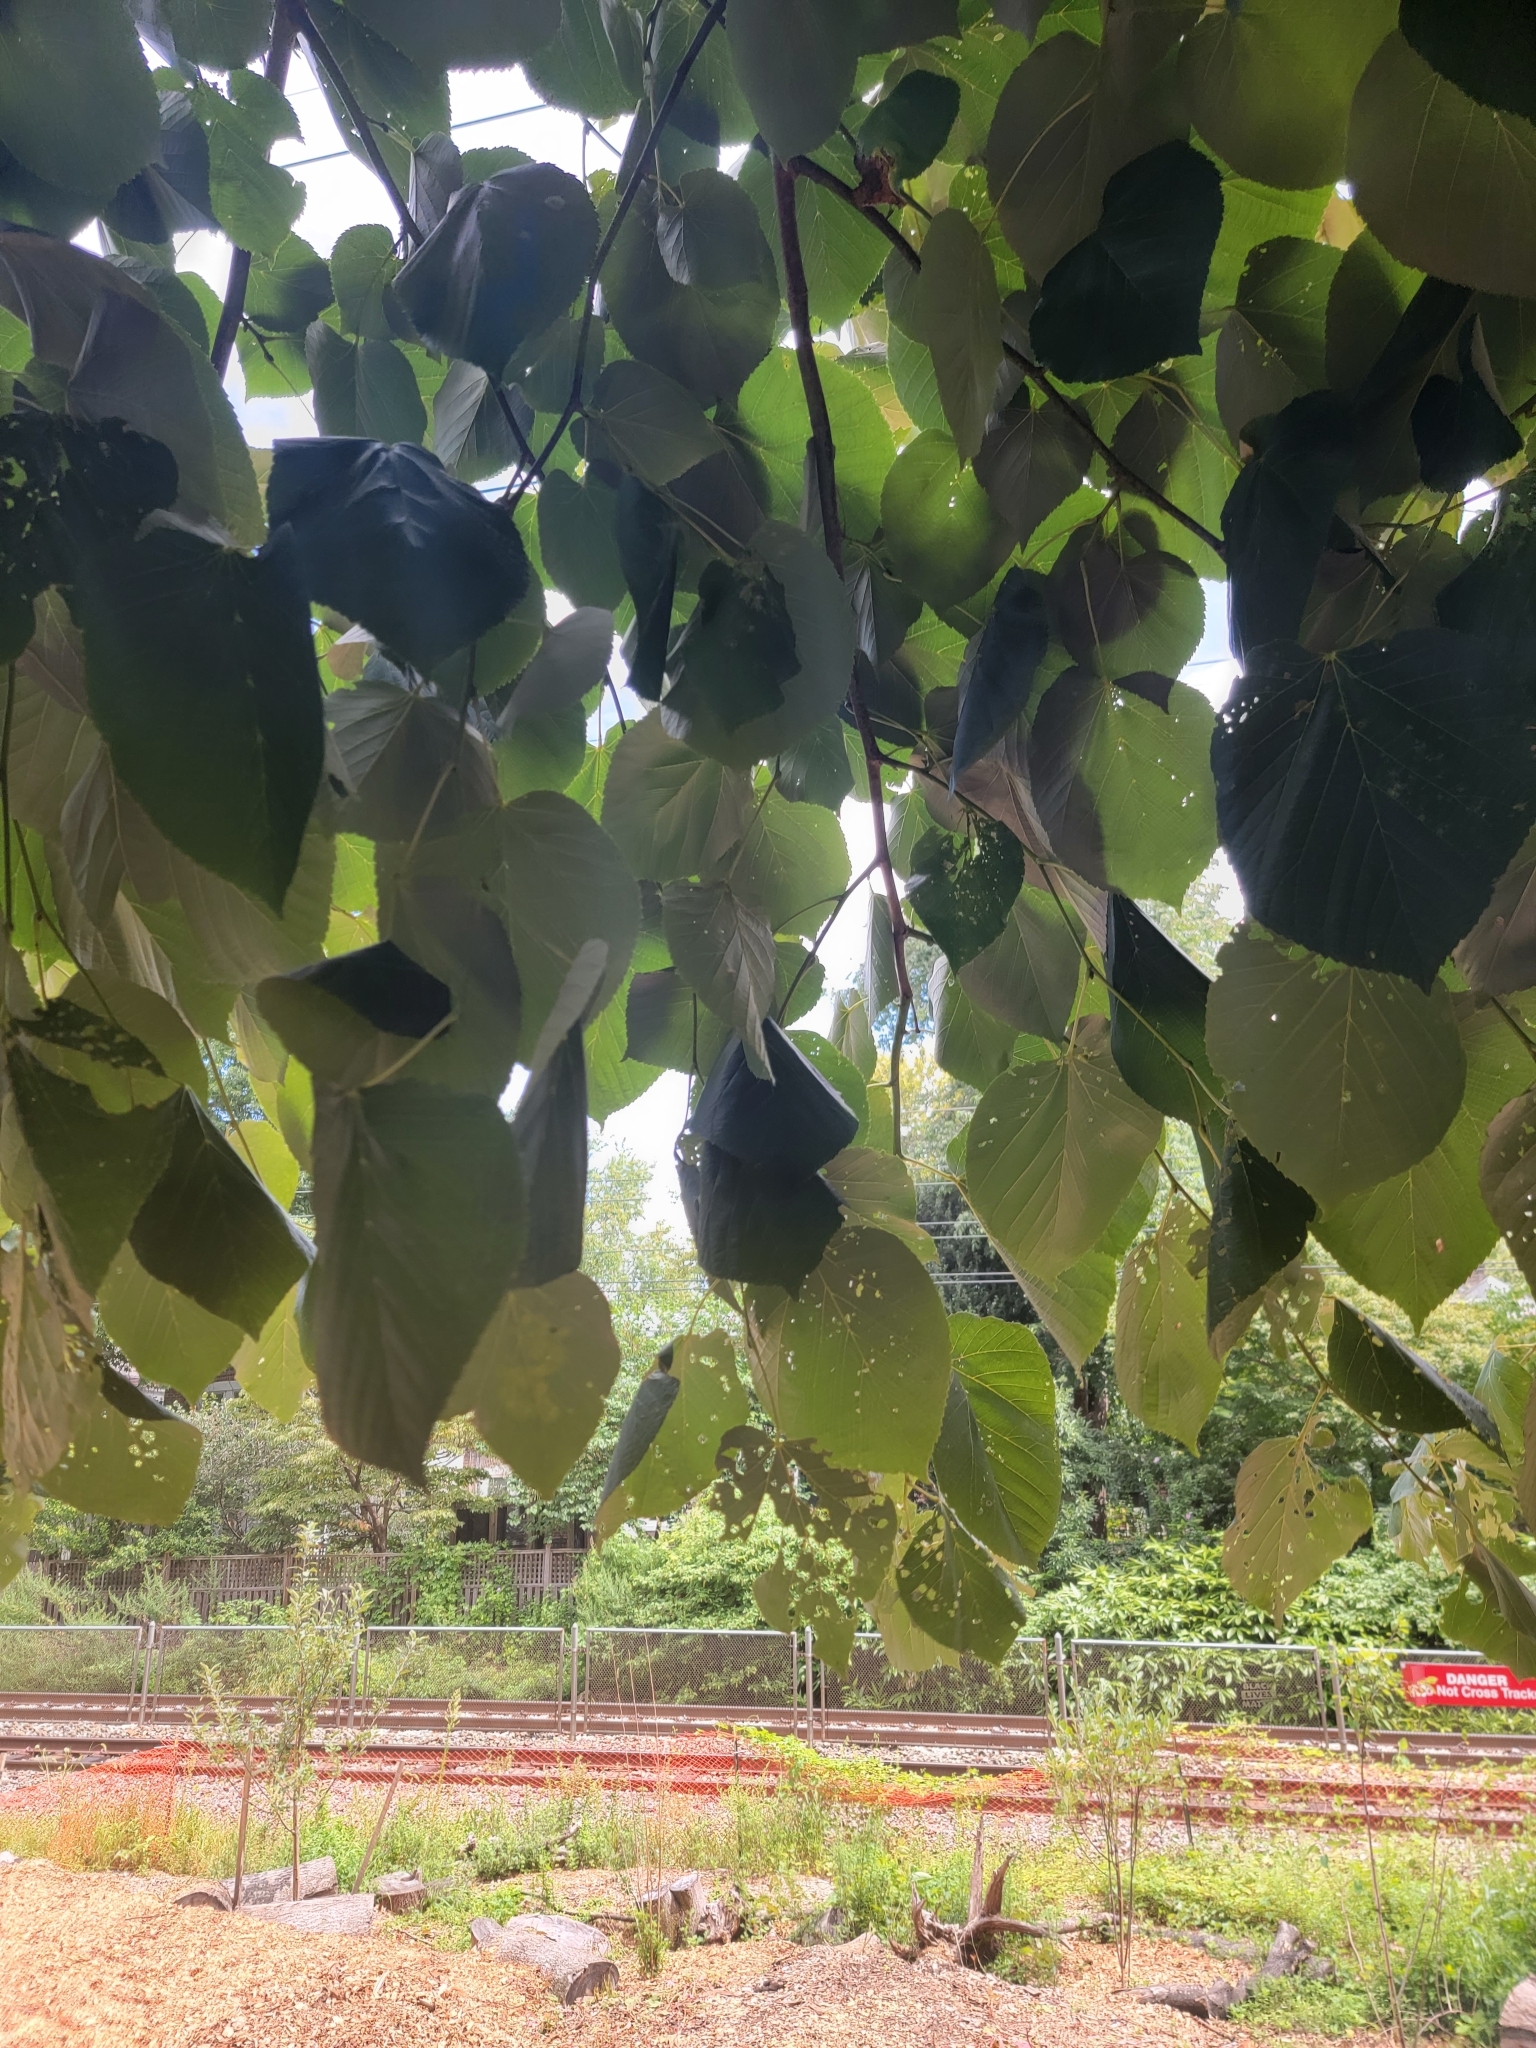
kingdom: Plantae
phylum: Tracheophyta
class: Magnoliopsida
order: Malvales
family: Malvaceae
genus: Tilia
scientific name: Tilia americana
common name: Basswood
